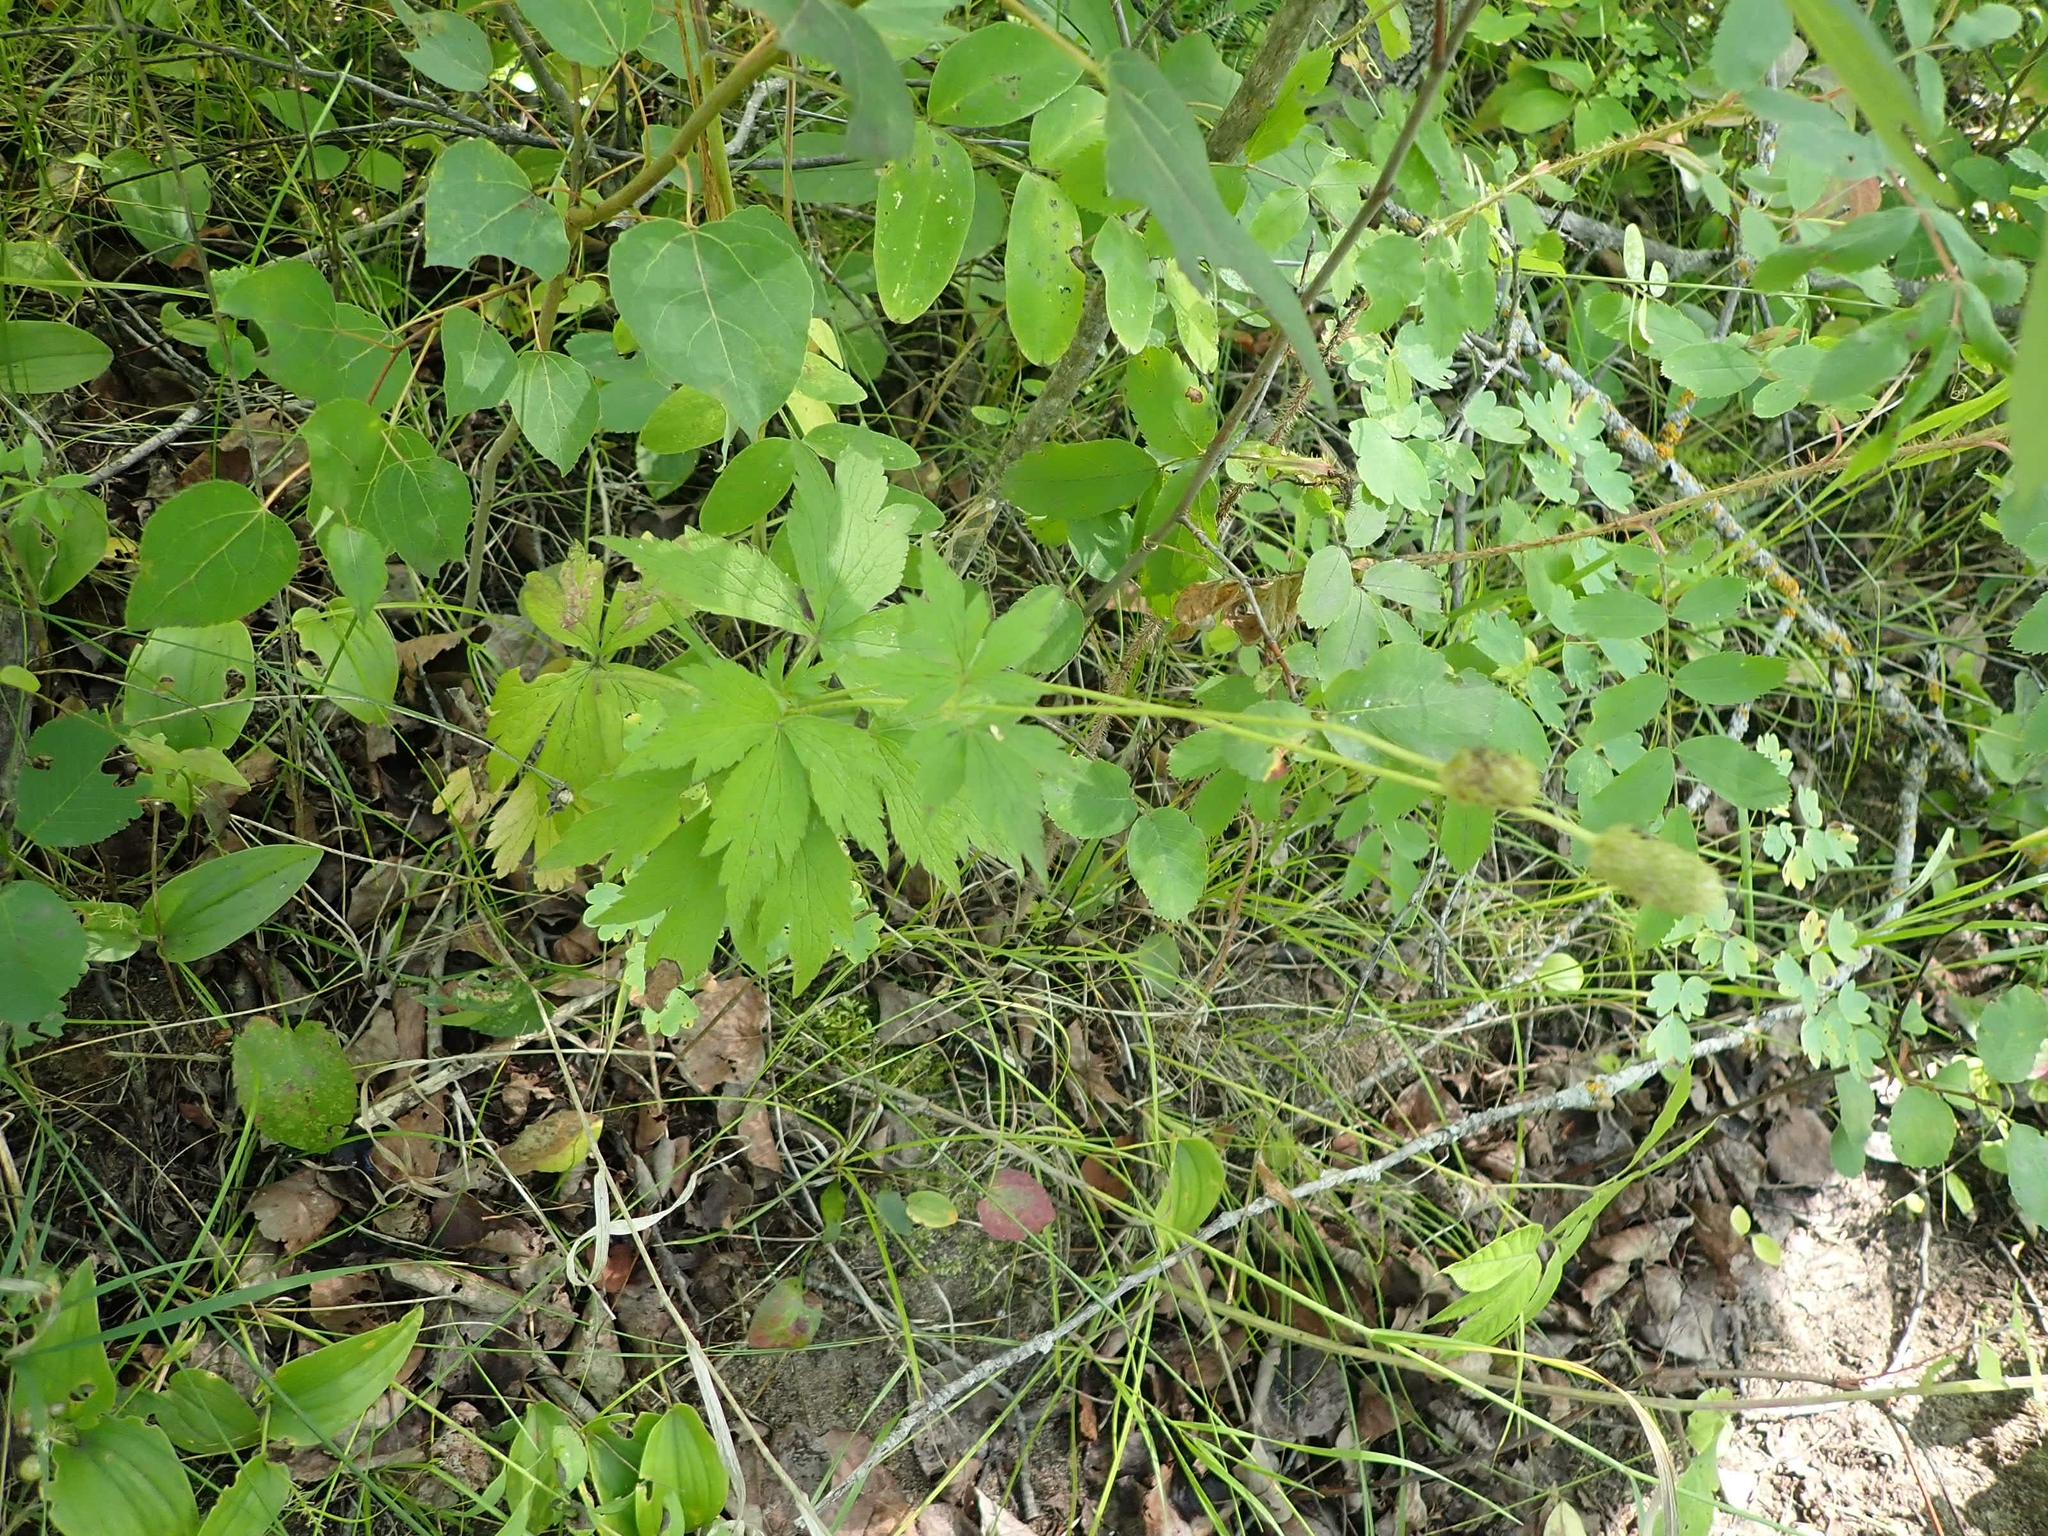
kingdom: Plantae
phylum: Tracheophyta
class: Magnoliopsida
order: Ranunculales
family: Ranunculaceae
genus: Anemone
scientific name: Anemone virginiana
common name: Tall anemone
